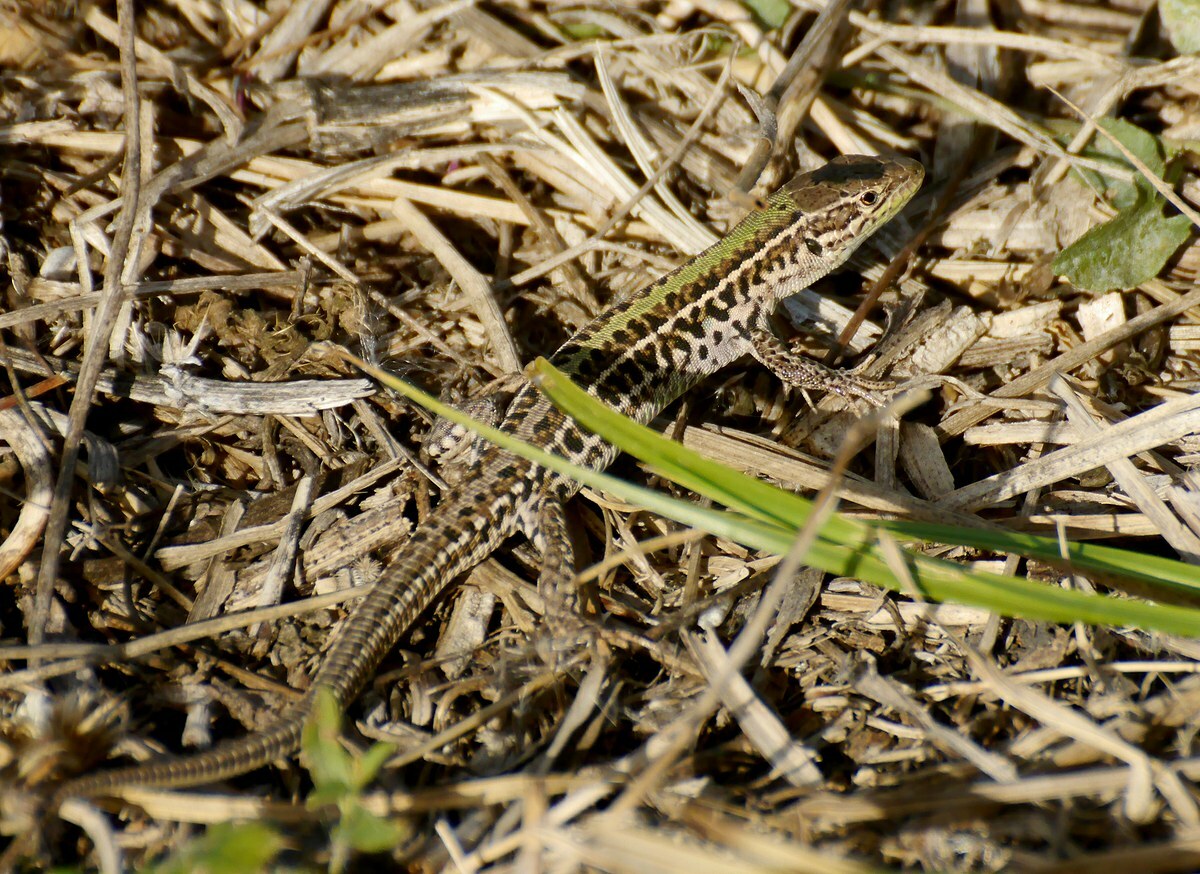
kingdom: Animalia
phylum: Chordata
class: Squamata
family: Lacertidae
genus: Podarcis
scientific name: Podarcis tauricus
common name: Balkan wall lizard
